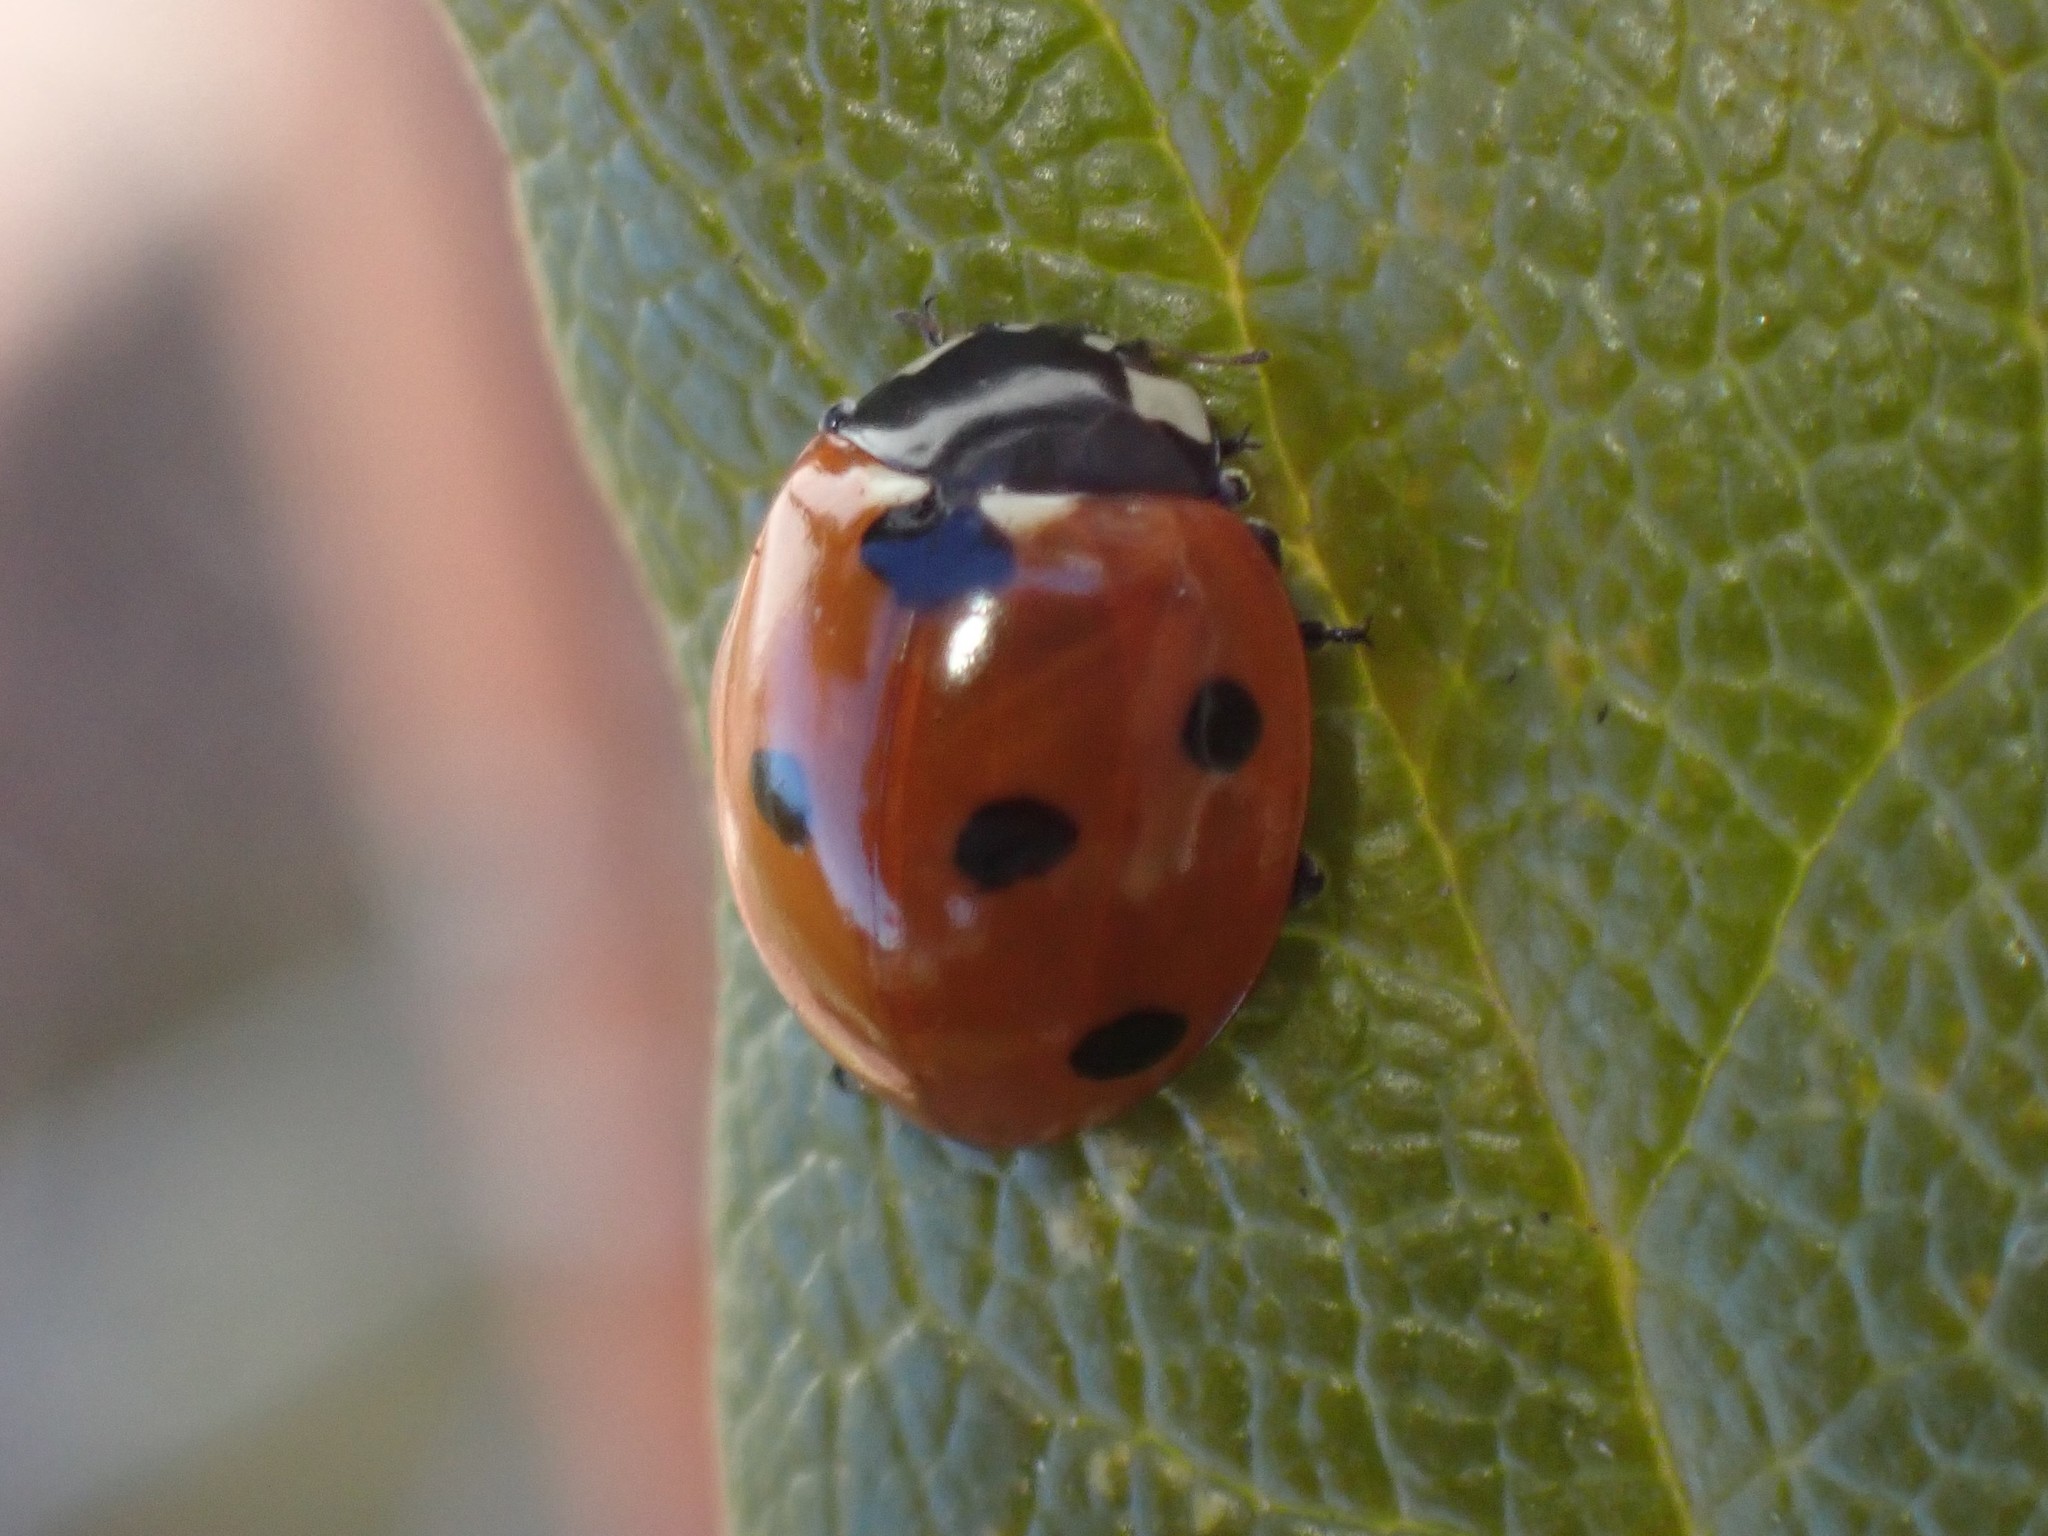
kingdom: Animalia
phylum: Arthropoda
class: Insecta
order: Coleoptera
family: Coccinellidae
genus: Coccinella
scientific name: Coccinella septempunctata
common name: Sevenspotted lady beetle
